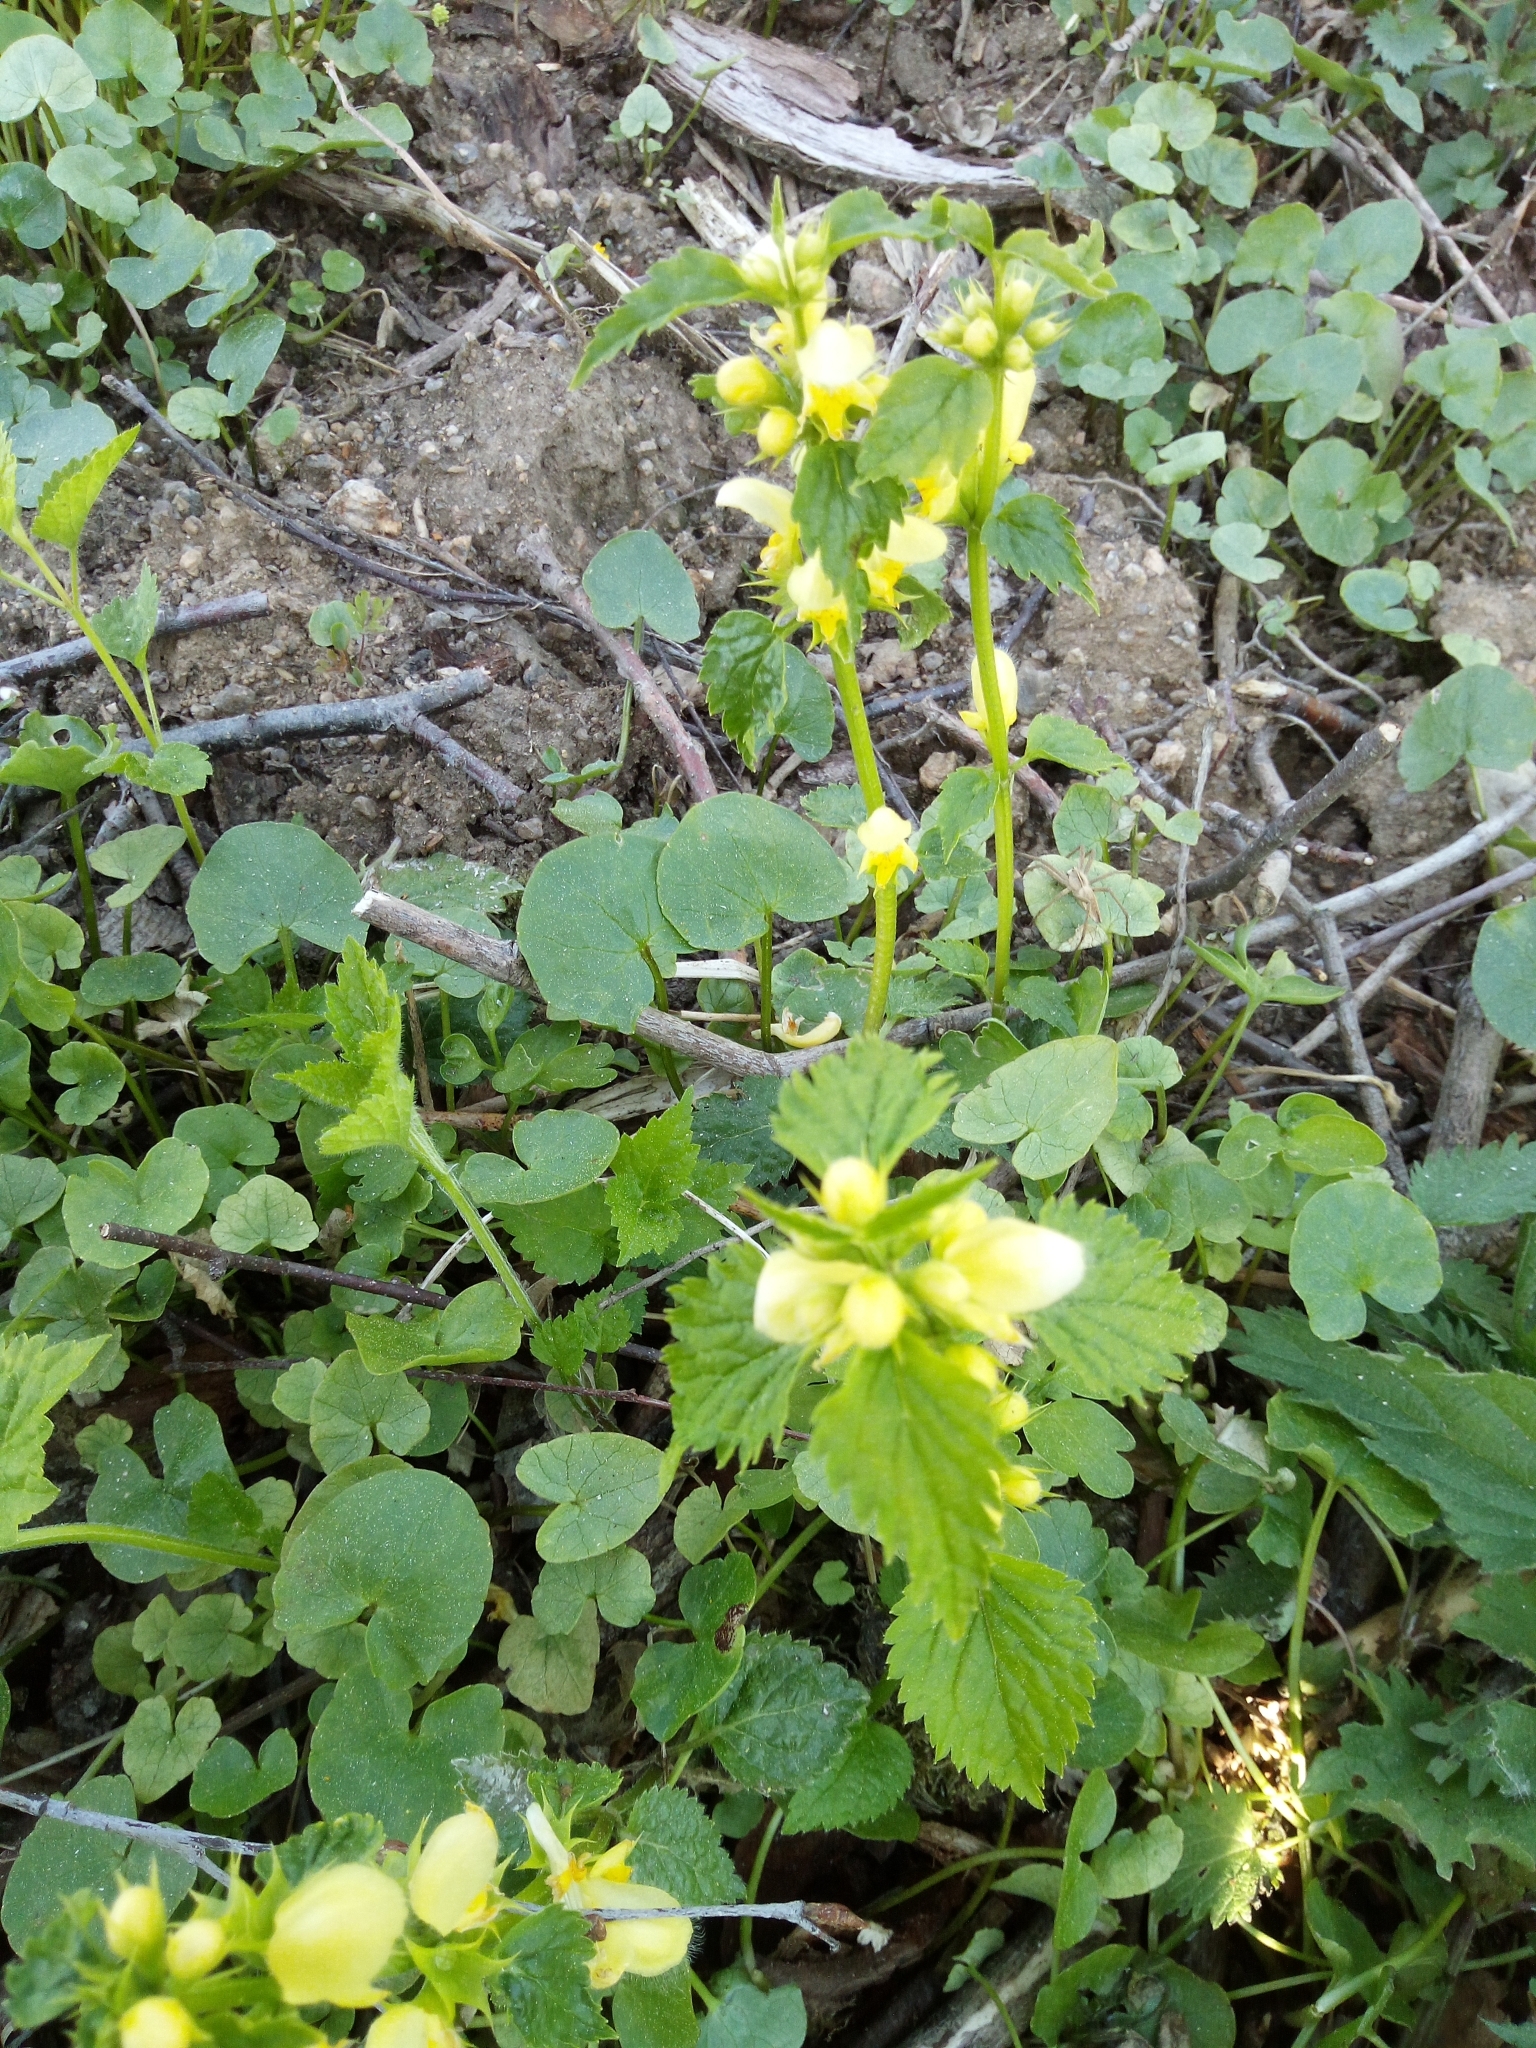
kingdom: Plantae
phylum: Tracheophyta
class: Magnoliopsida
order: Lamiales
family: Lamiaceae
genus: Lamium
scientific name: Lamium galeobdolon
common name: Yellow archangel
